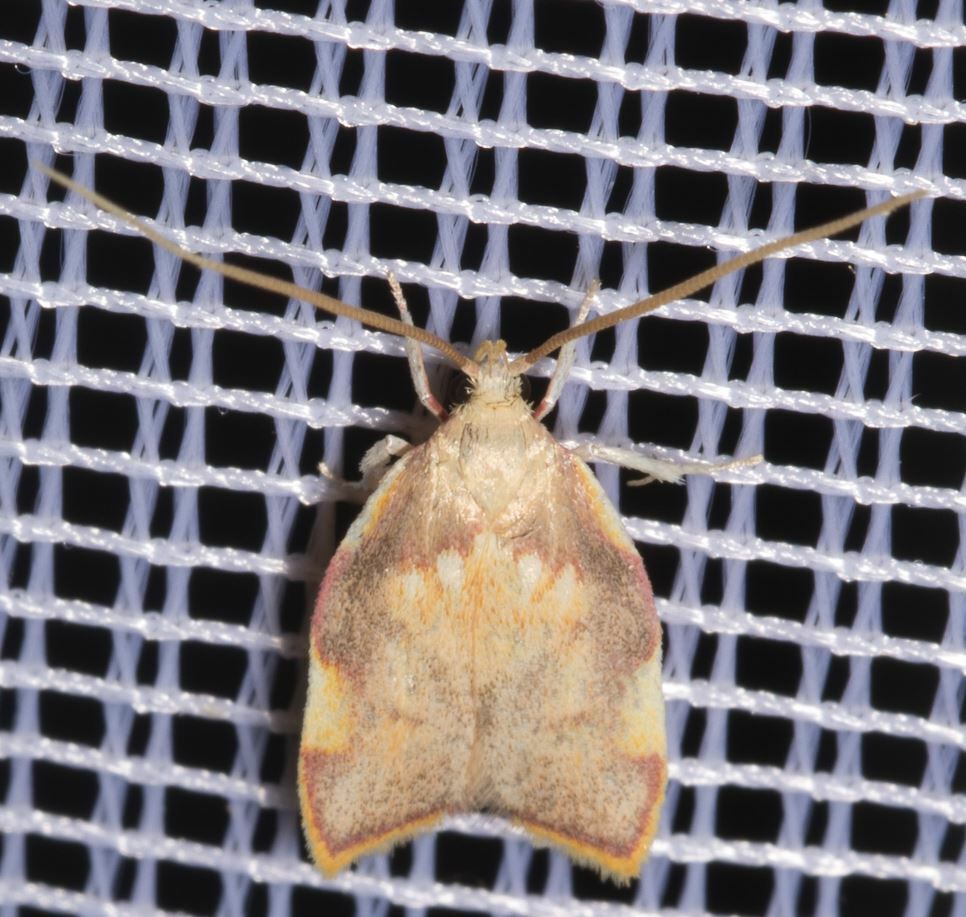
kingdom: Animalia
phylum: Arthropoda
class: Insecta
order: Lepidoptera
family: Peleopodidae
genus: Carcina
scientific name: Carcina quercana
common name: Moth
